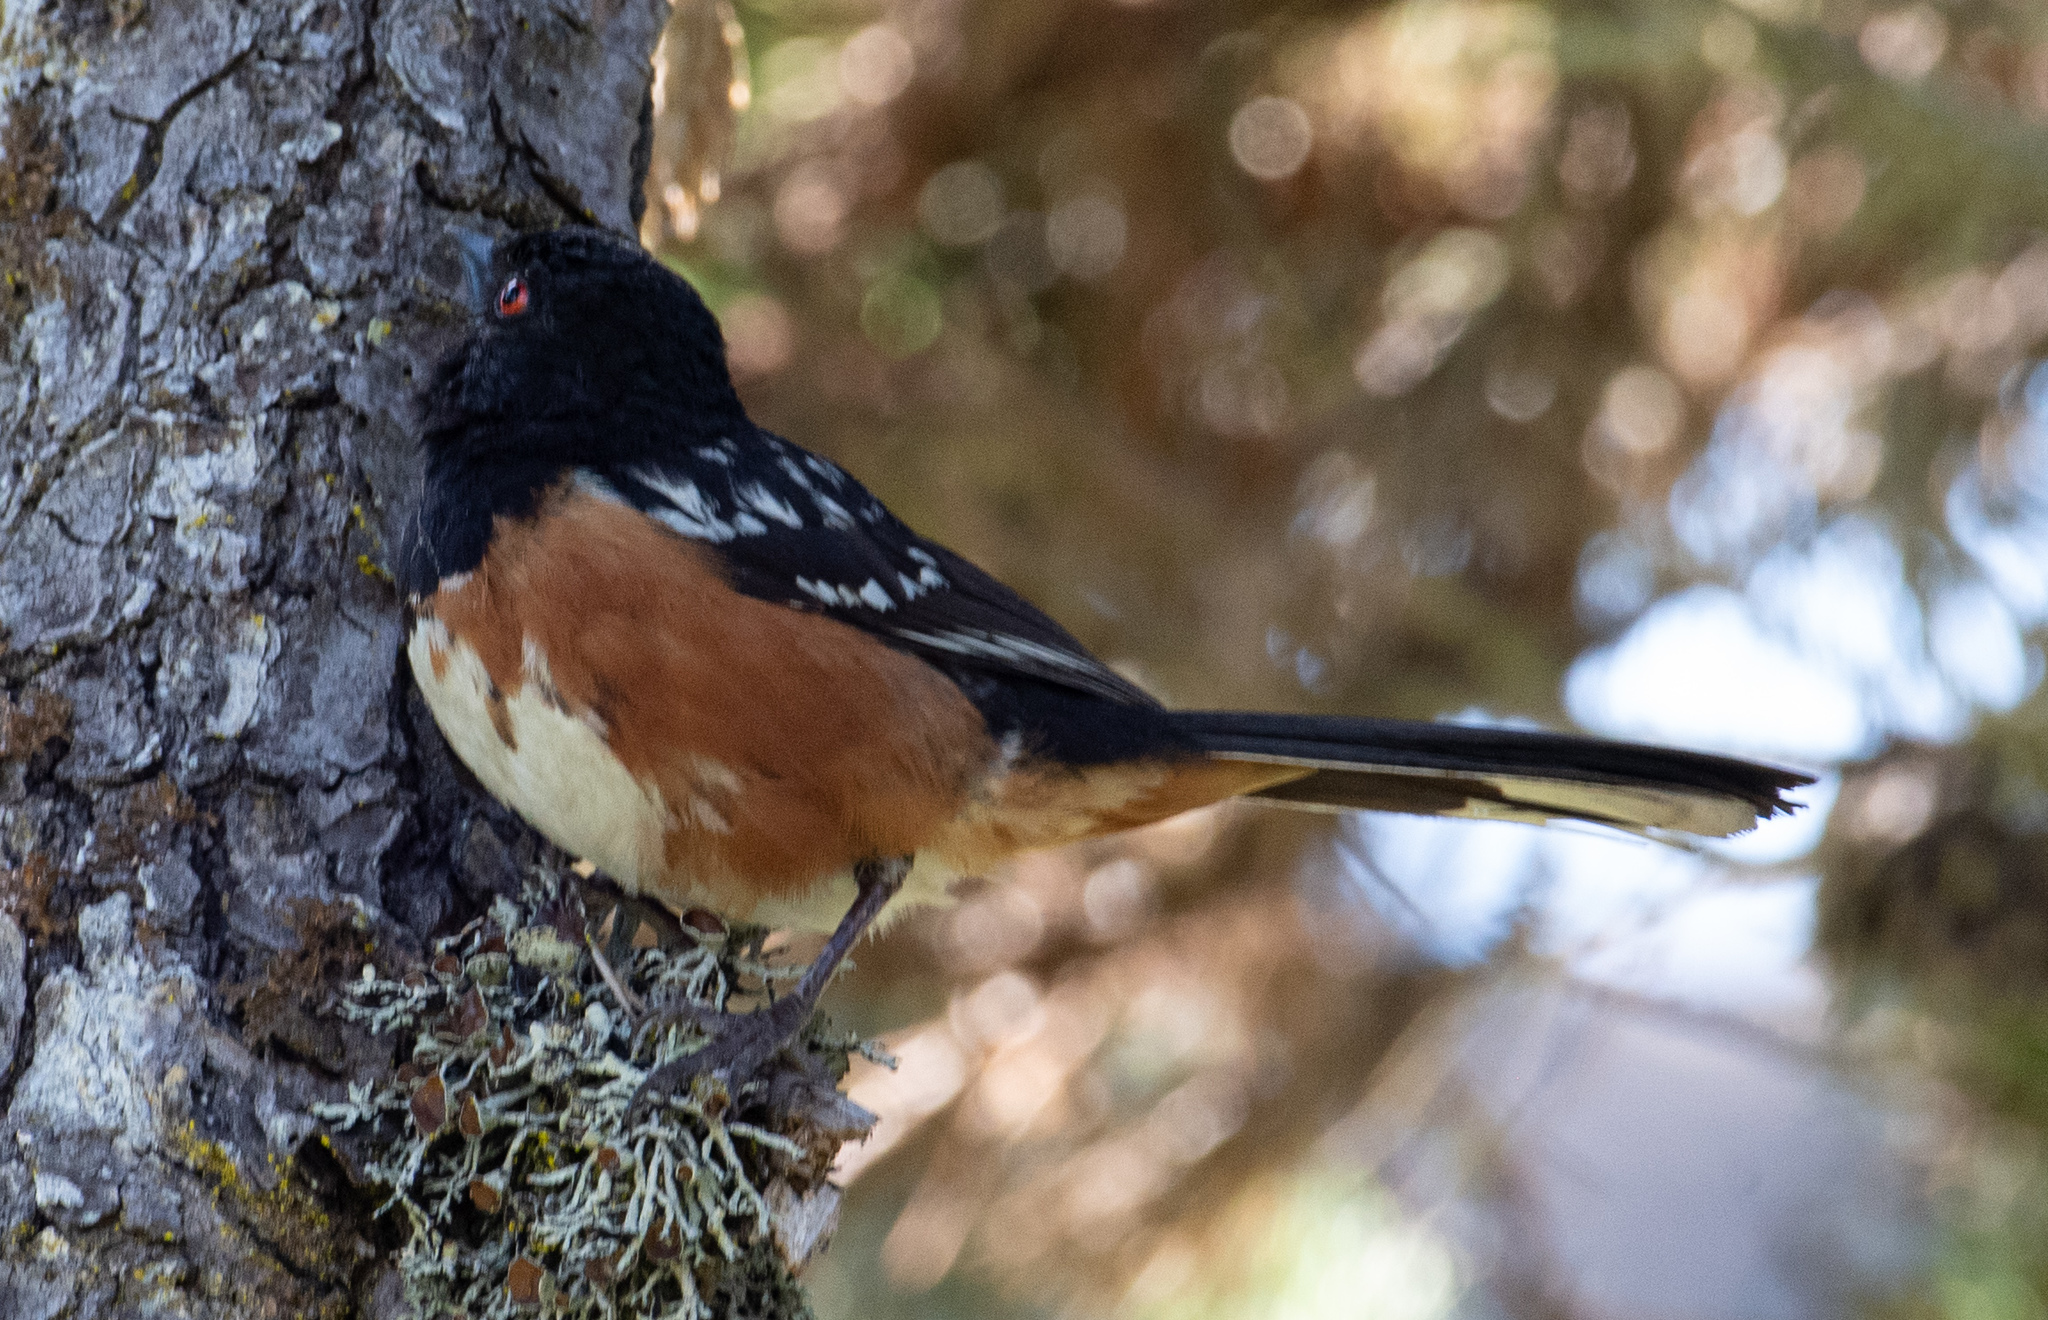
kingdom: Animalia
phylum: Chordata
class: Aves
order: Passeriformes
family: Passerellidae
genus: Pipilo
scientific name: Pipilo maculatus
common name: Spotted towhee
